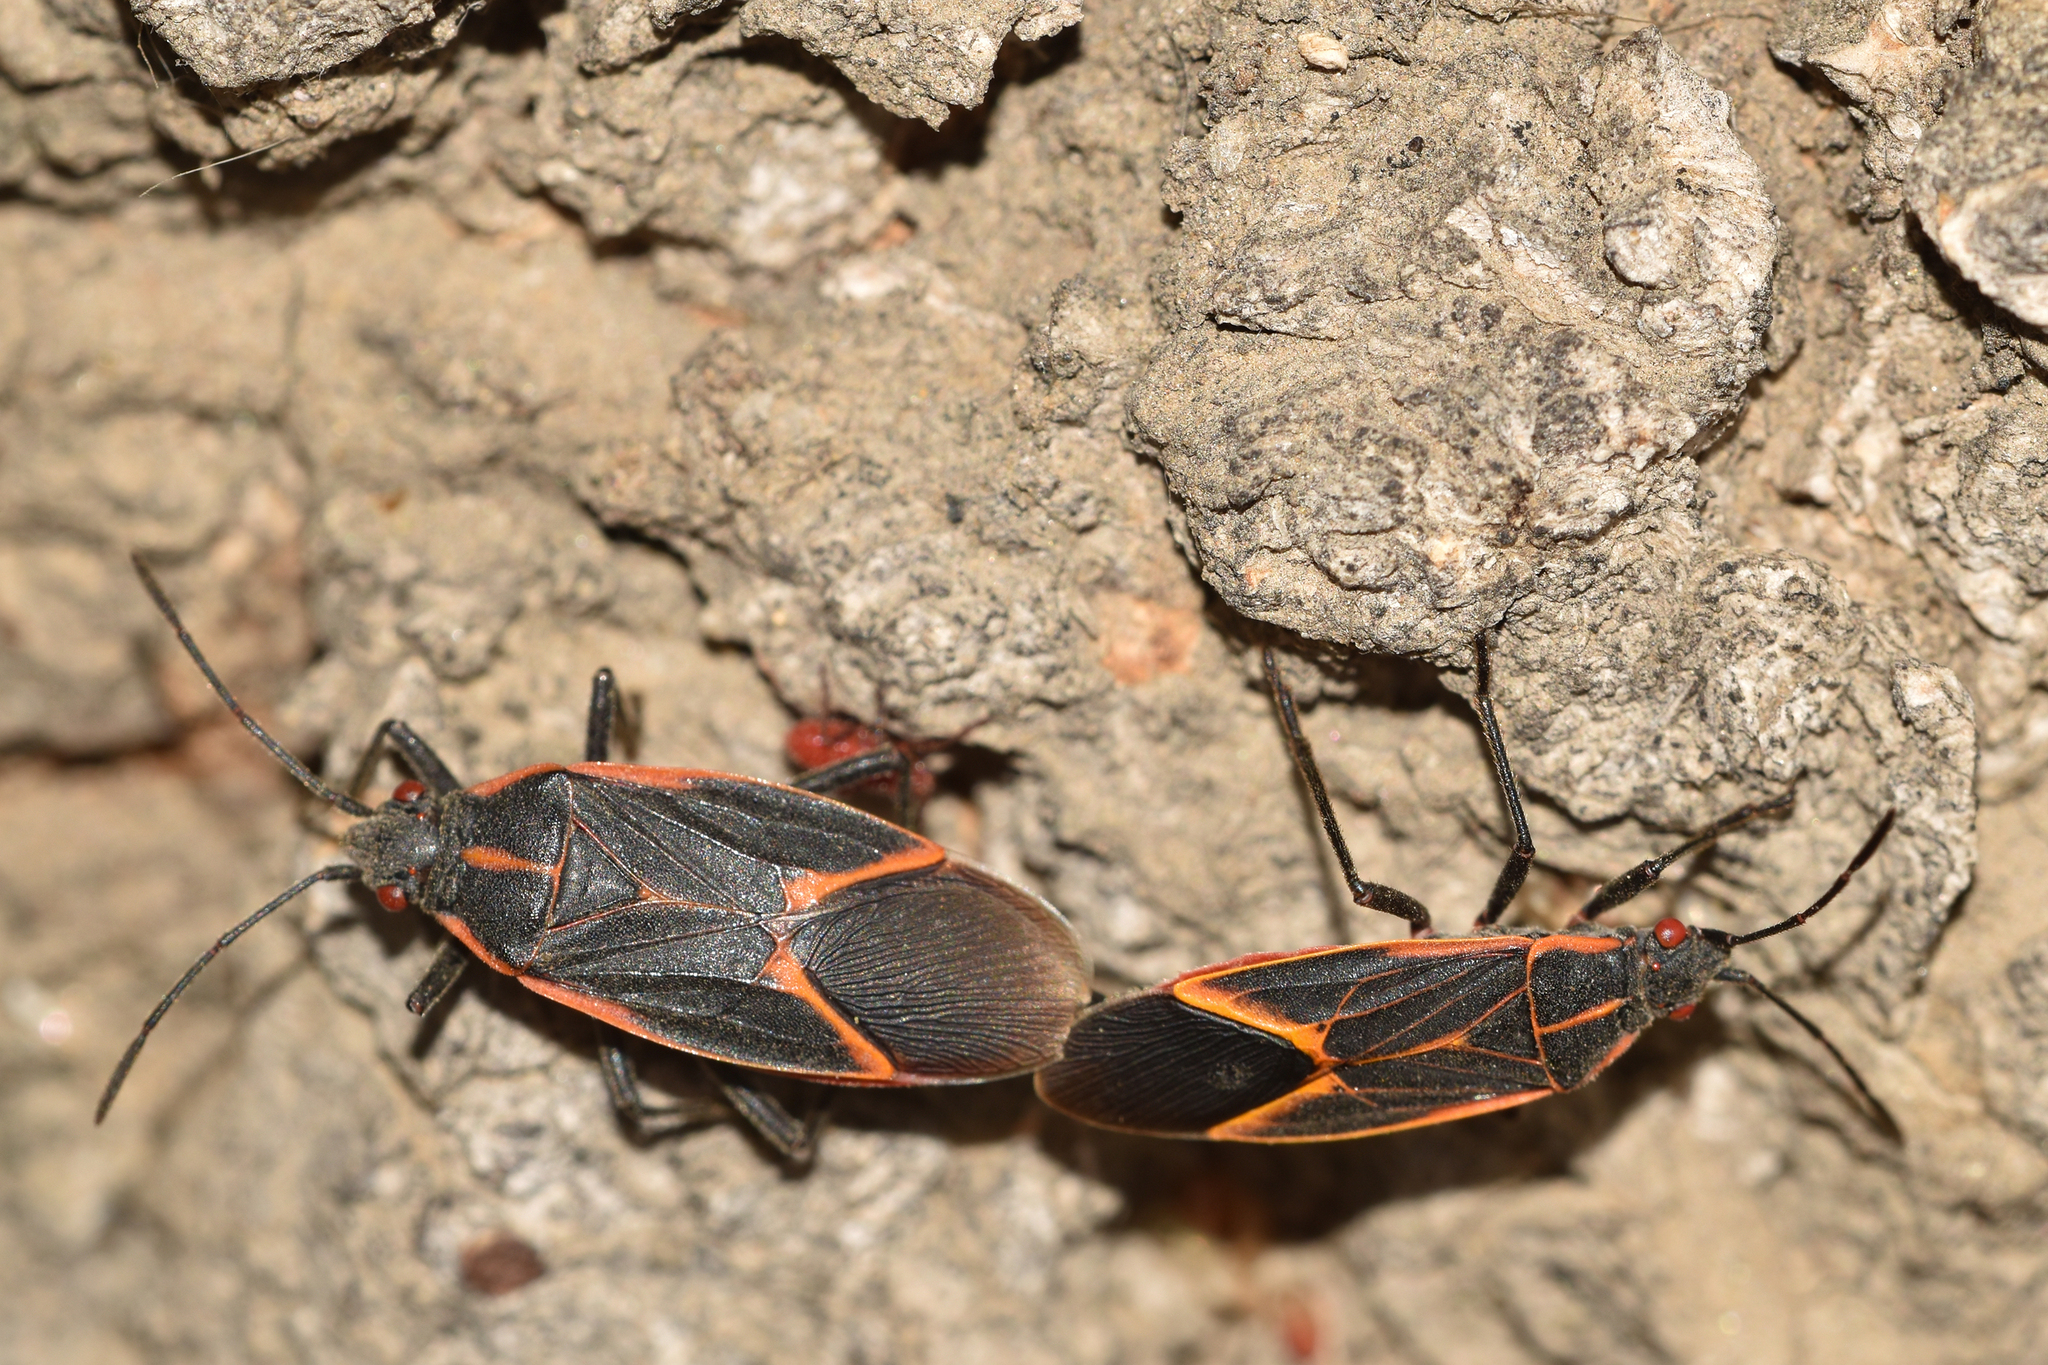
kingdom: Animalia
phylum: Arthropoda
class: Insecta
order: Hemiptera
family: Rhopalidae
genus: Boisea
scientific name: Boisea trivittata
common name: Boxelder bug
